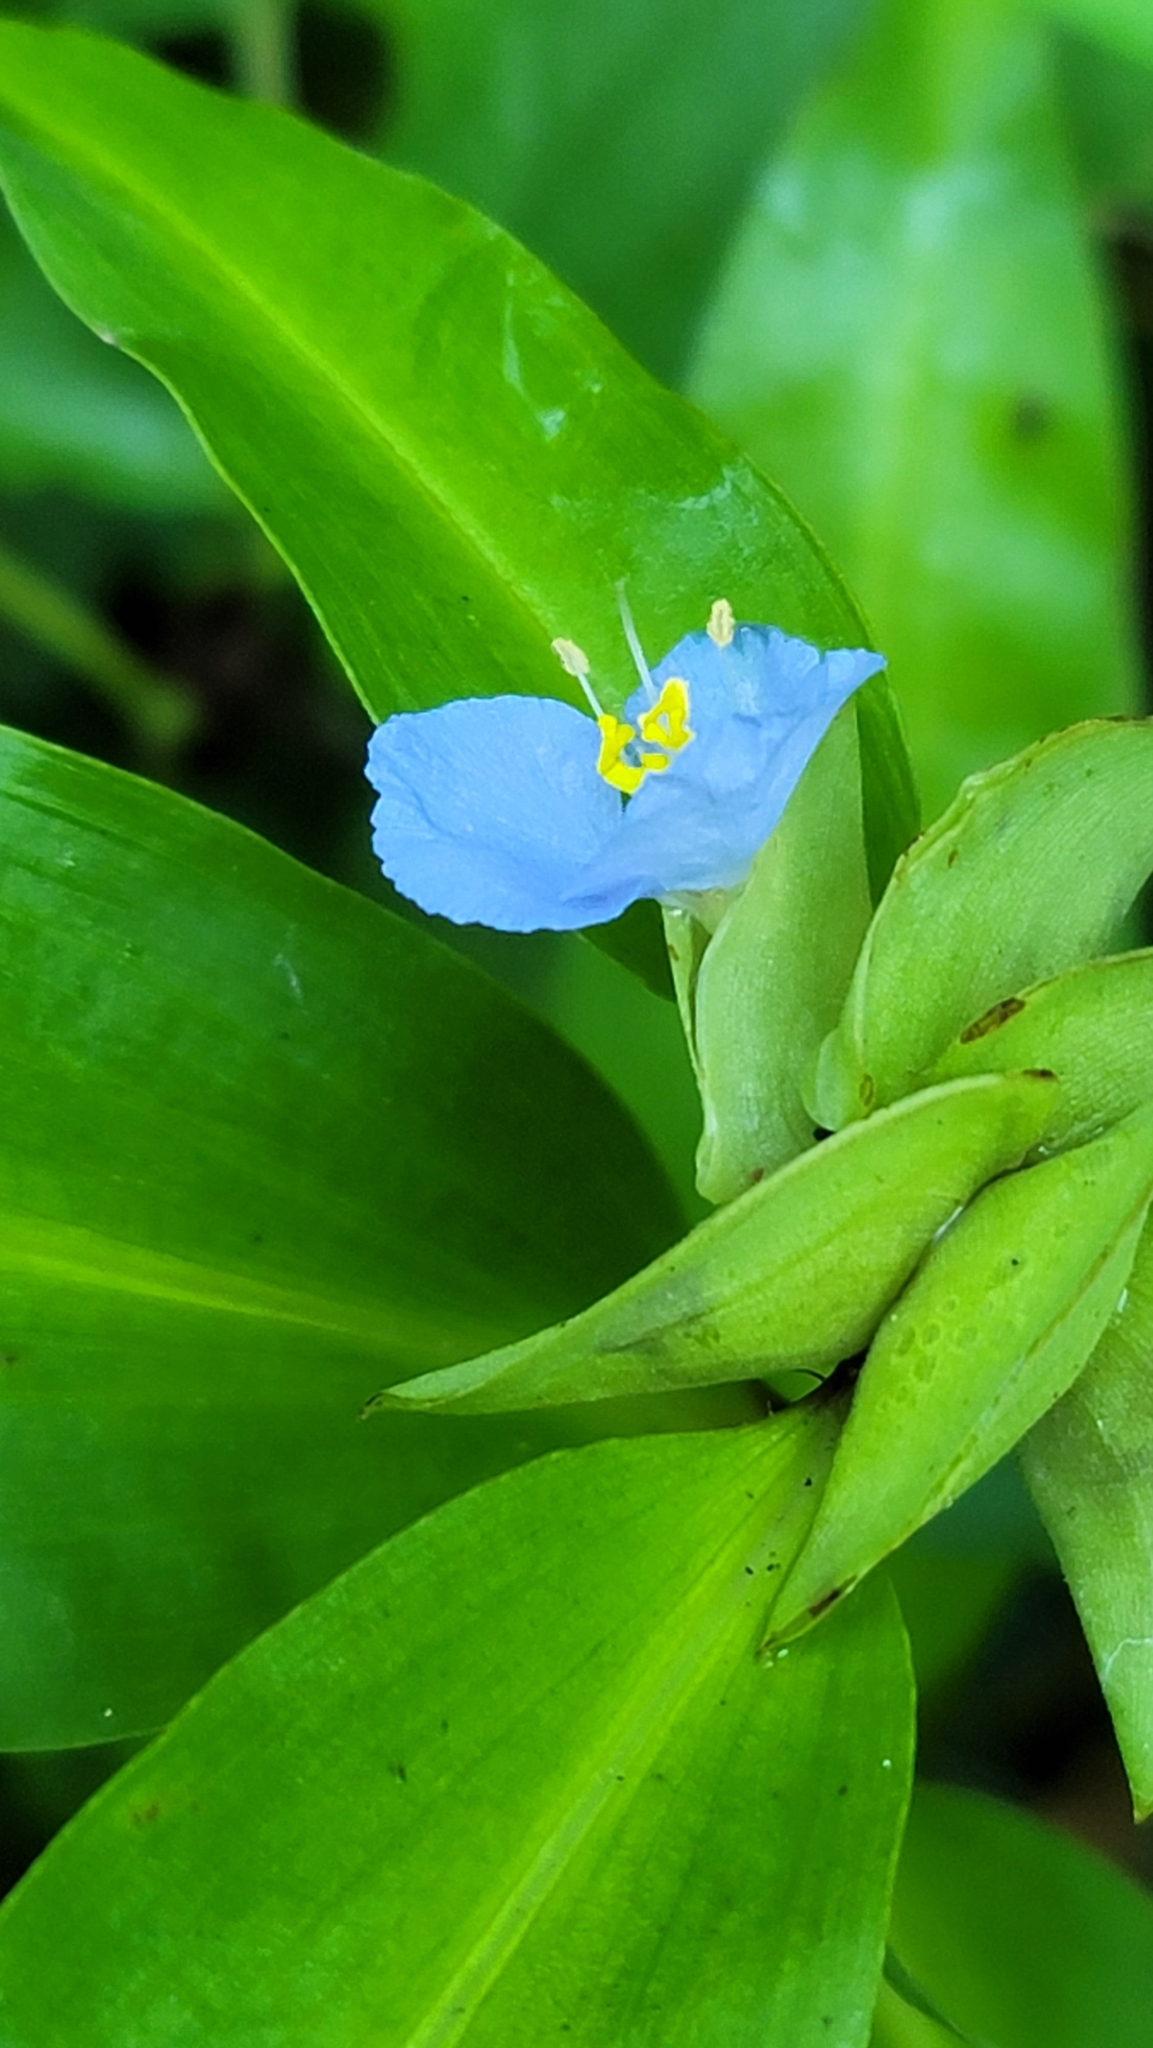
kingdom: Plantae
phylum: Tracheophyta
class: Liliopsida
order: Commelinales
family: Commelinaceae
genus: Commelina
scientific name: Commelina virginica
